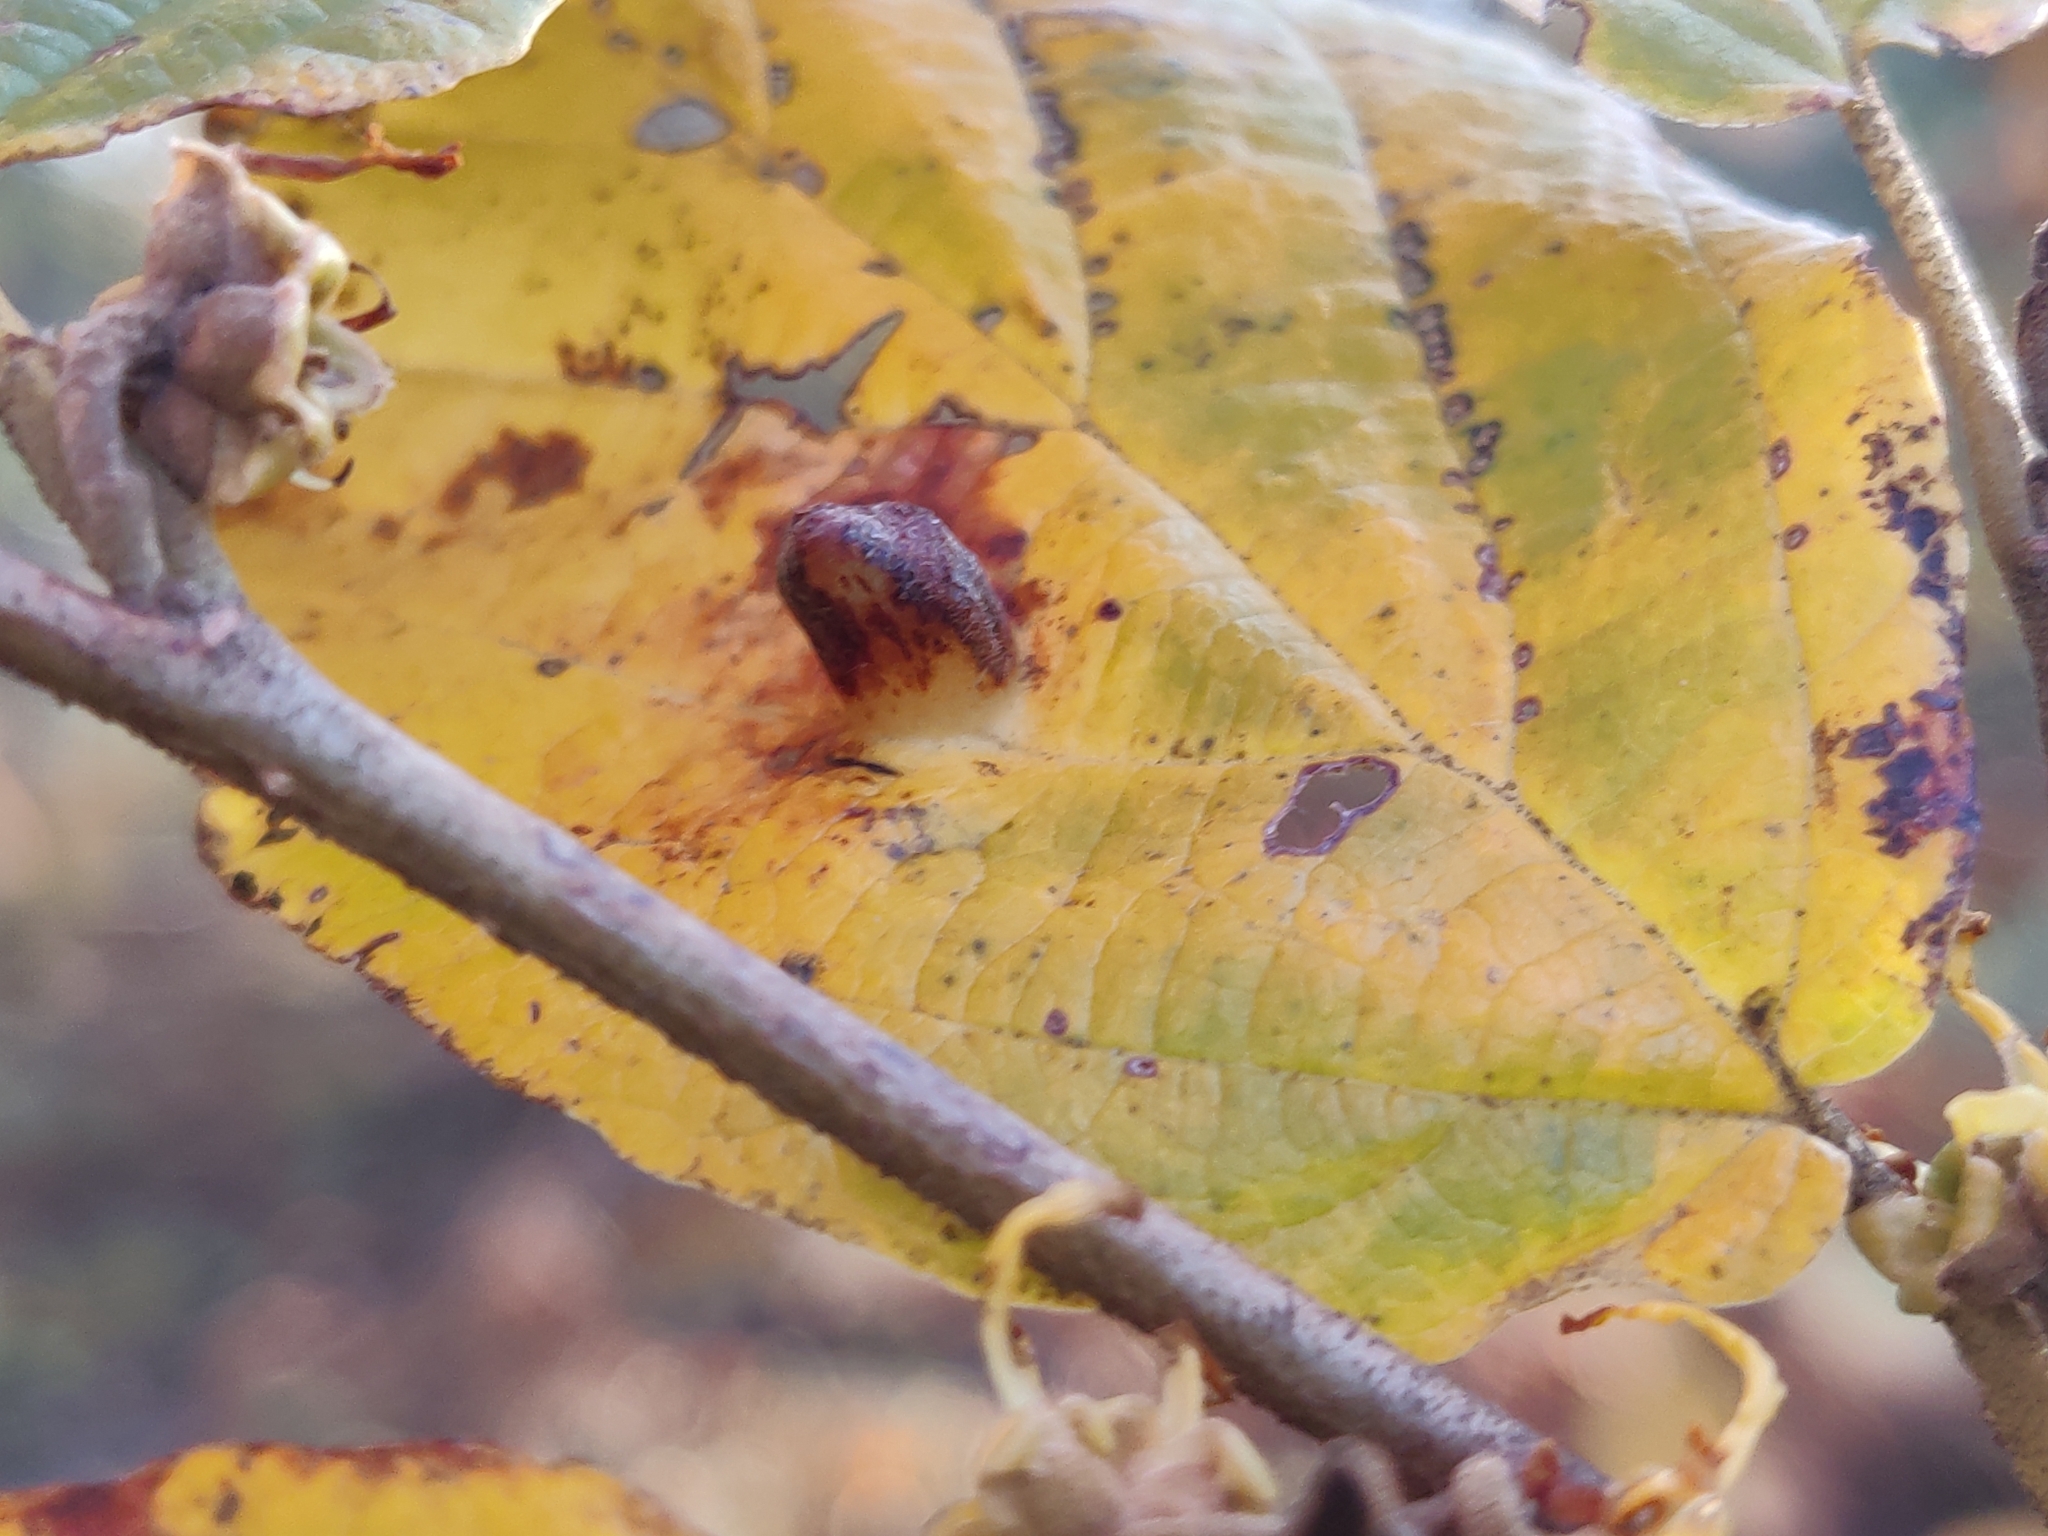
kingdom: Animalia
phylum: Arthropoda
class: Insecta
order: Hemiptera
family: Aphididae
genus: Hormaphis
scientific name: Hormaphis hamamelidis
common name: Witch-hazel cone gall aphid
